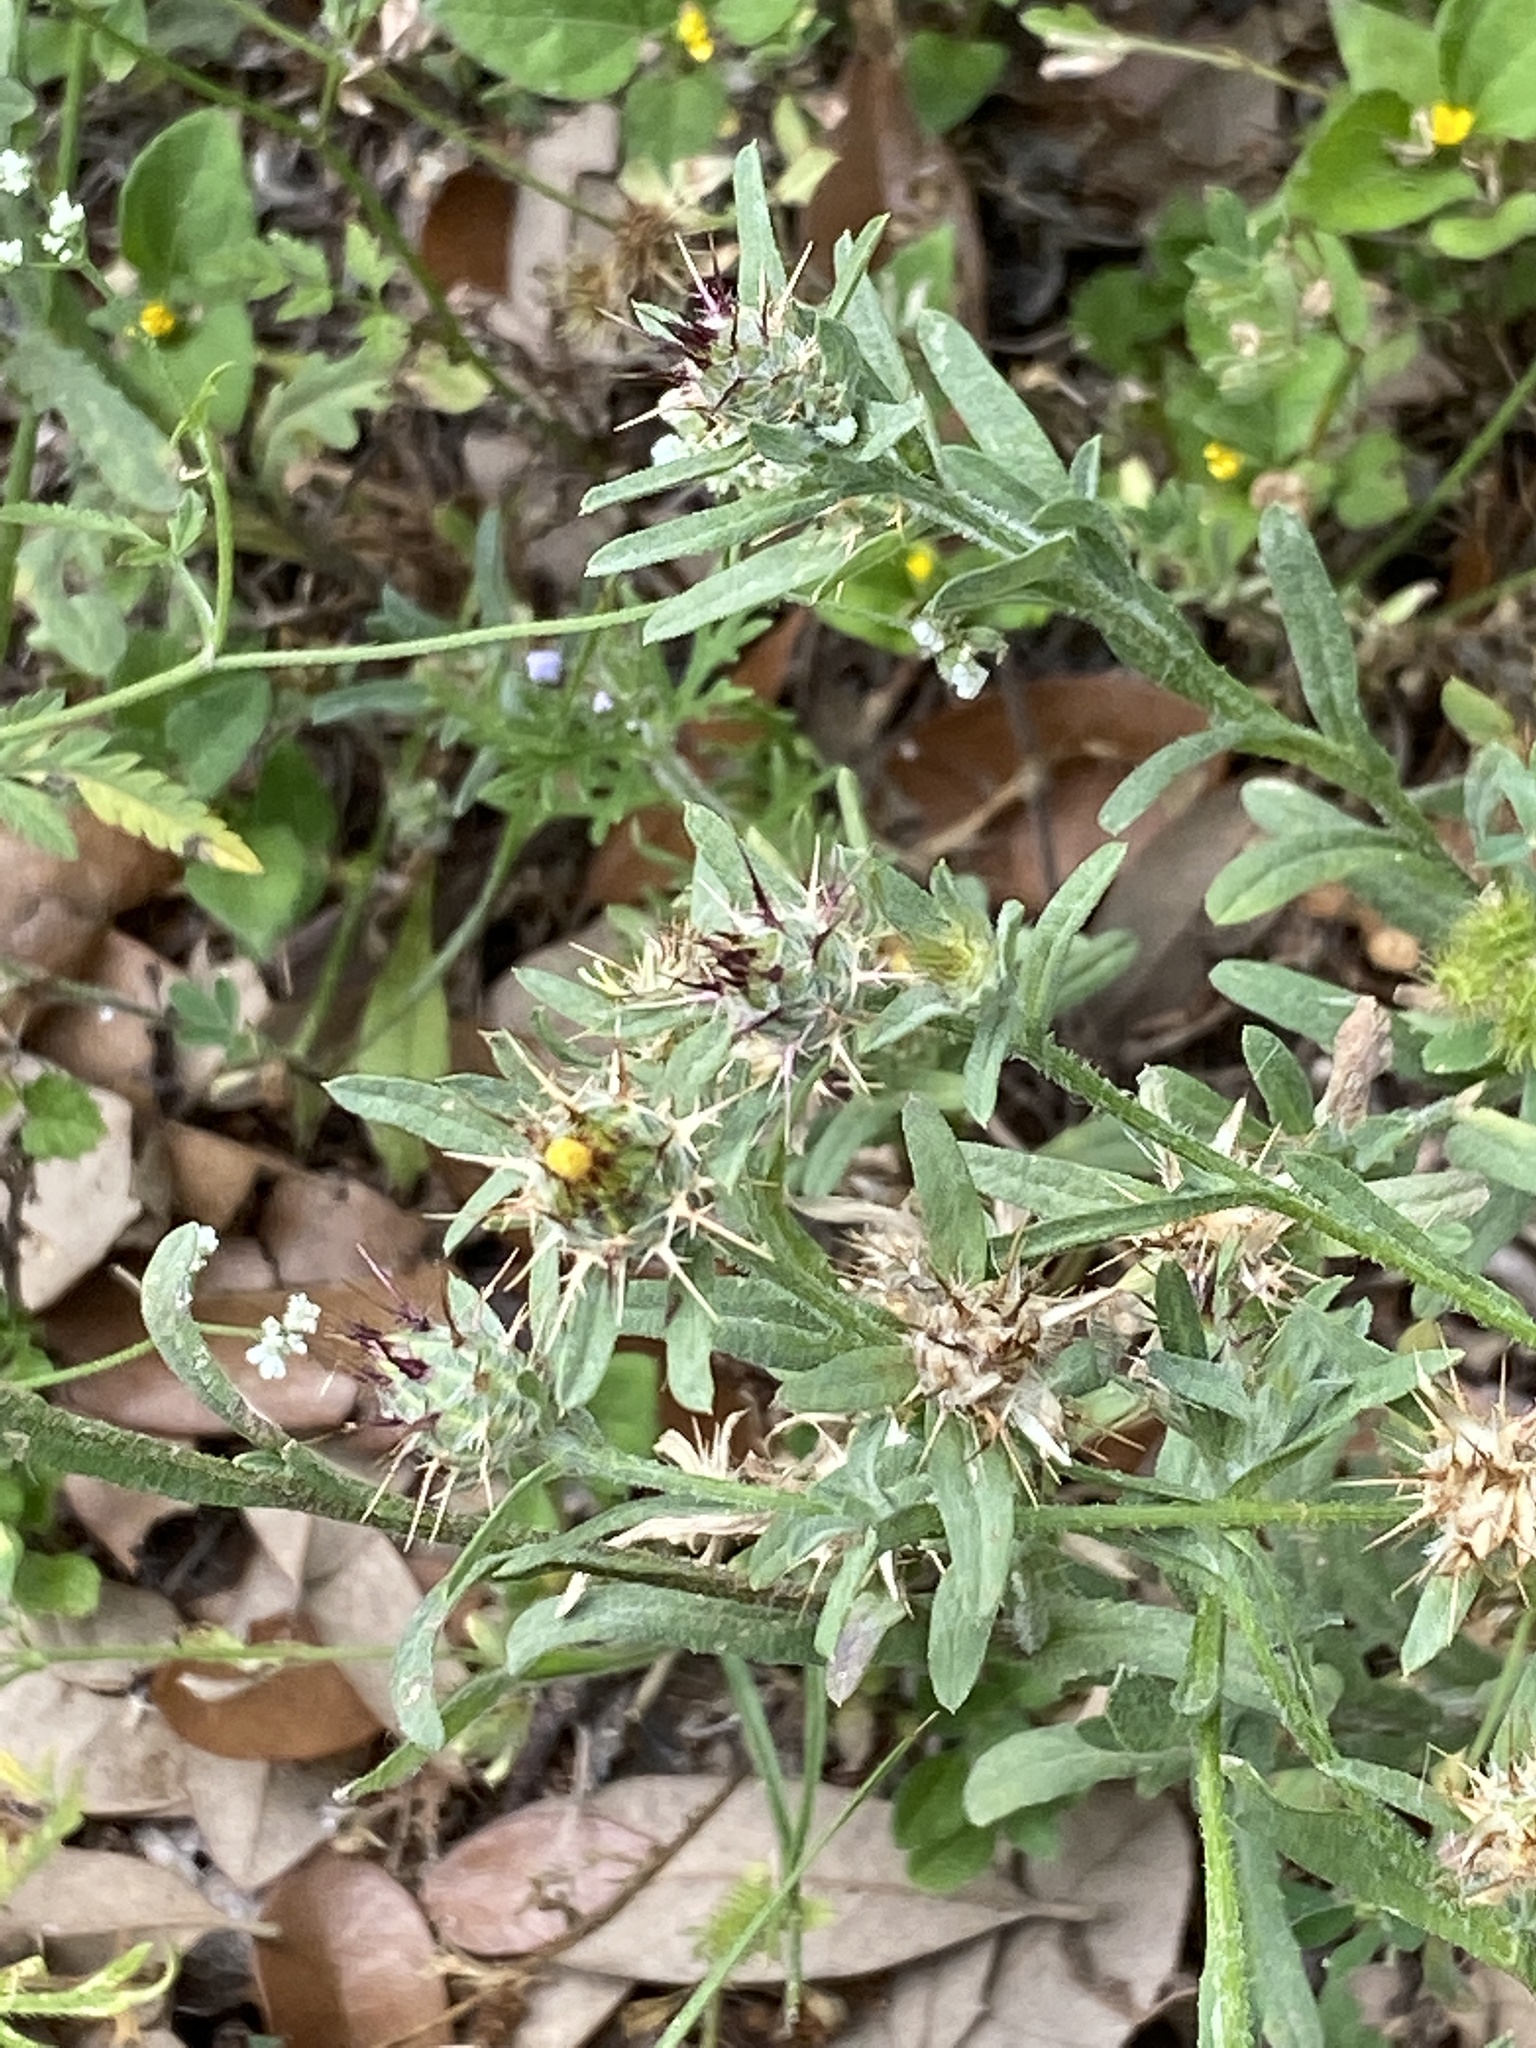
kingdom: Plantae
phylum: Tracheophyta
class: Magnoliopsida
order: Asterales
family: Asteraceae
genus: Centaurea
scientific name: Centaurea melitensis
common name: Maltese star-thistle
